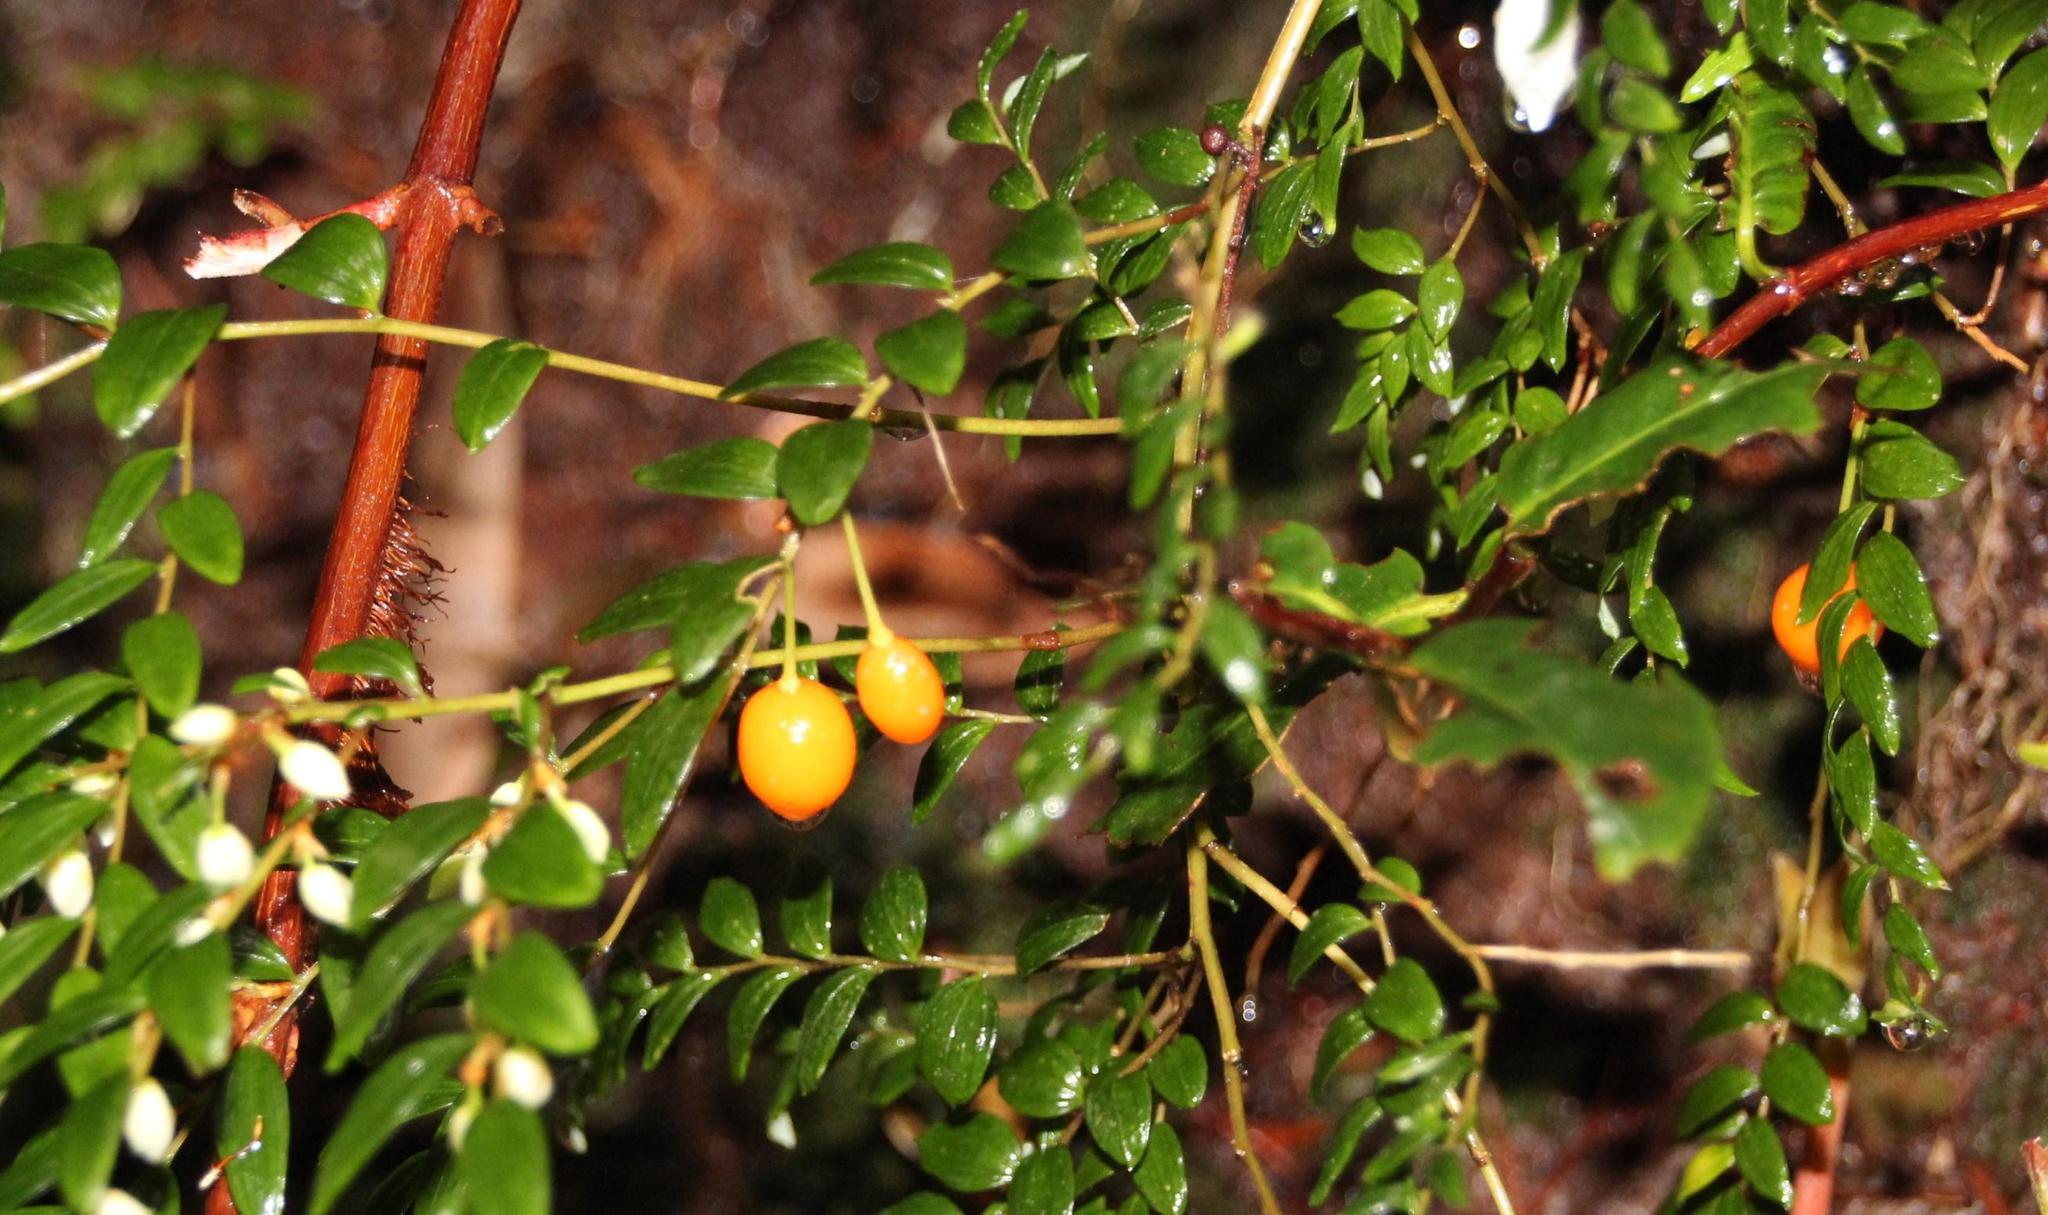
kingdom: Plantae
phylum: Tracheophyta
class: Liliopsida
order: Liliales
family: Alstroemeriaceae
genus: Luzuriaga
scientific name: Luzuriaga polyphylla
